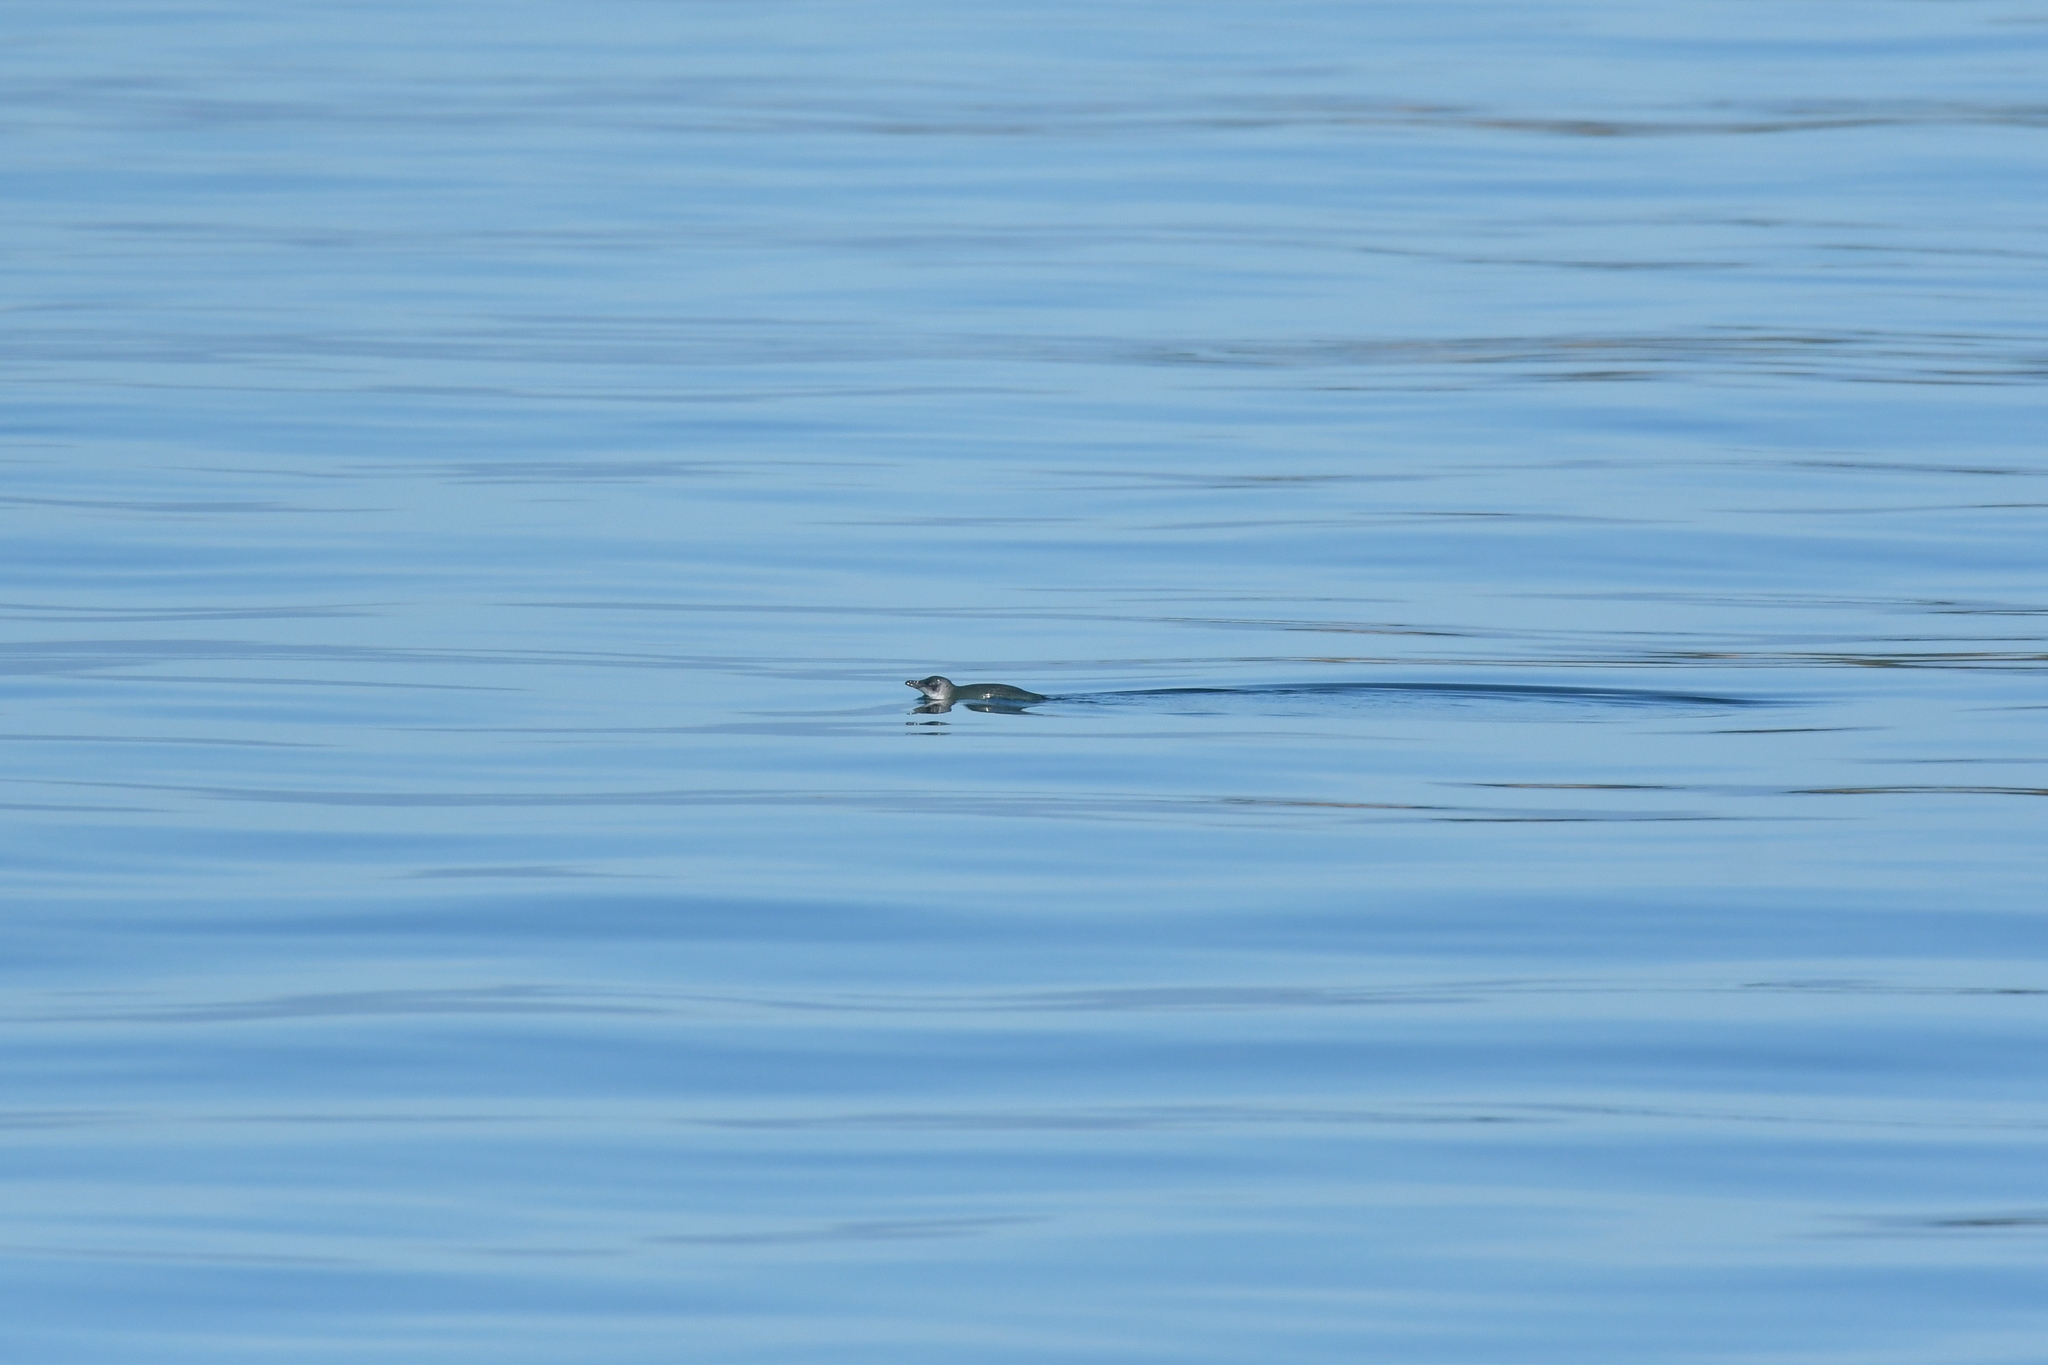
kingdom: Animalia
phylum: Chordata
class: Aves
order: Sphenisciformes
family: Spheniscidae
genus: Eudyptula
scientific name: Eudyptula minor
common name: Little penguin
